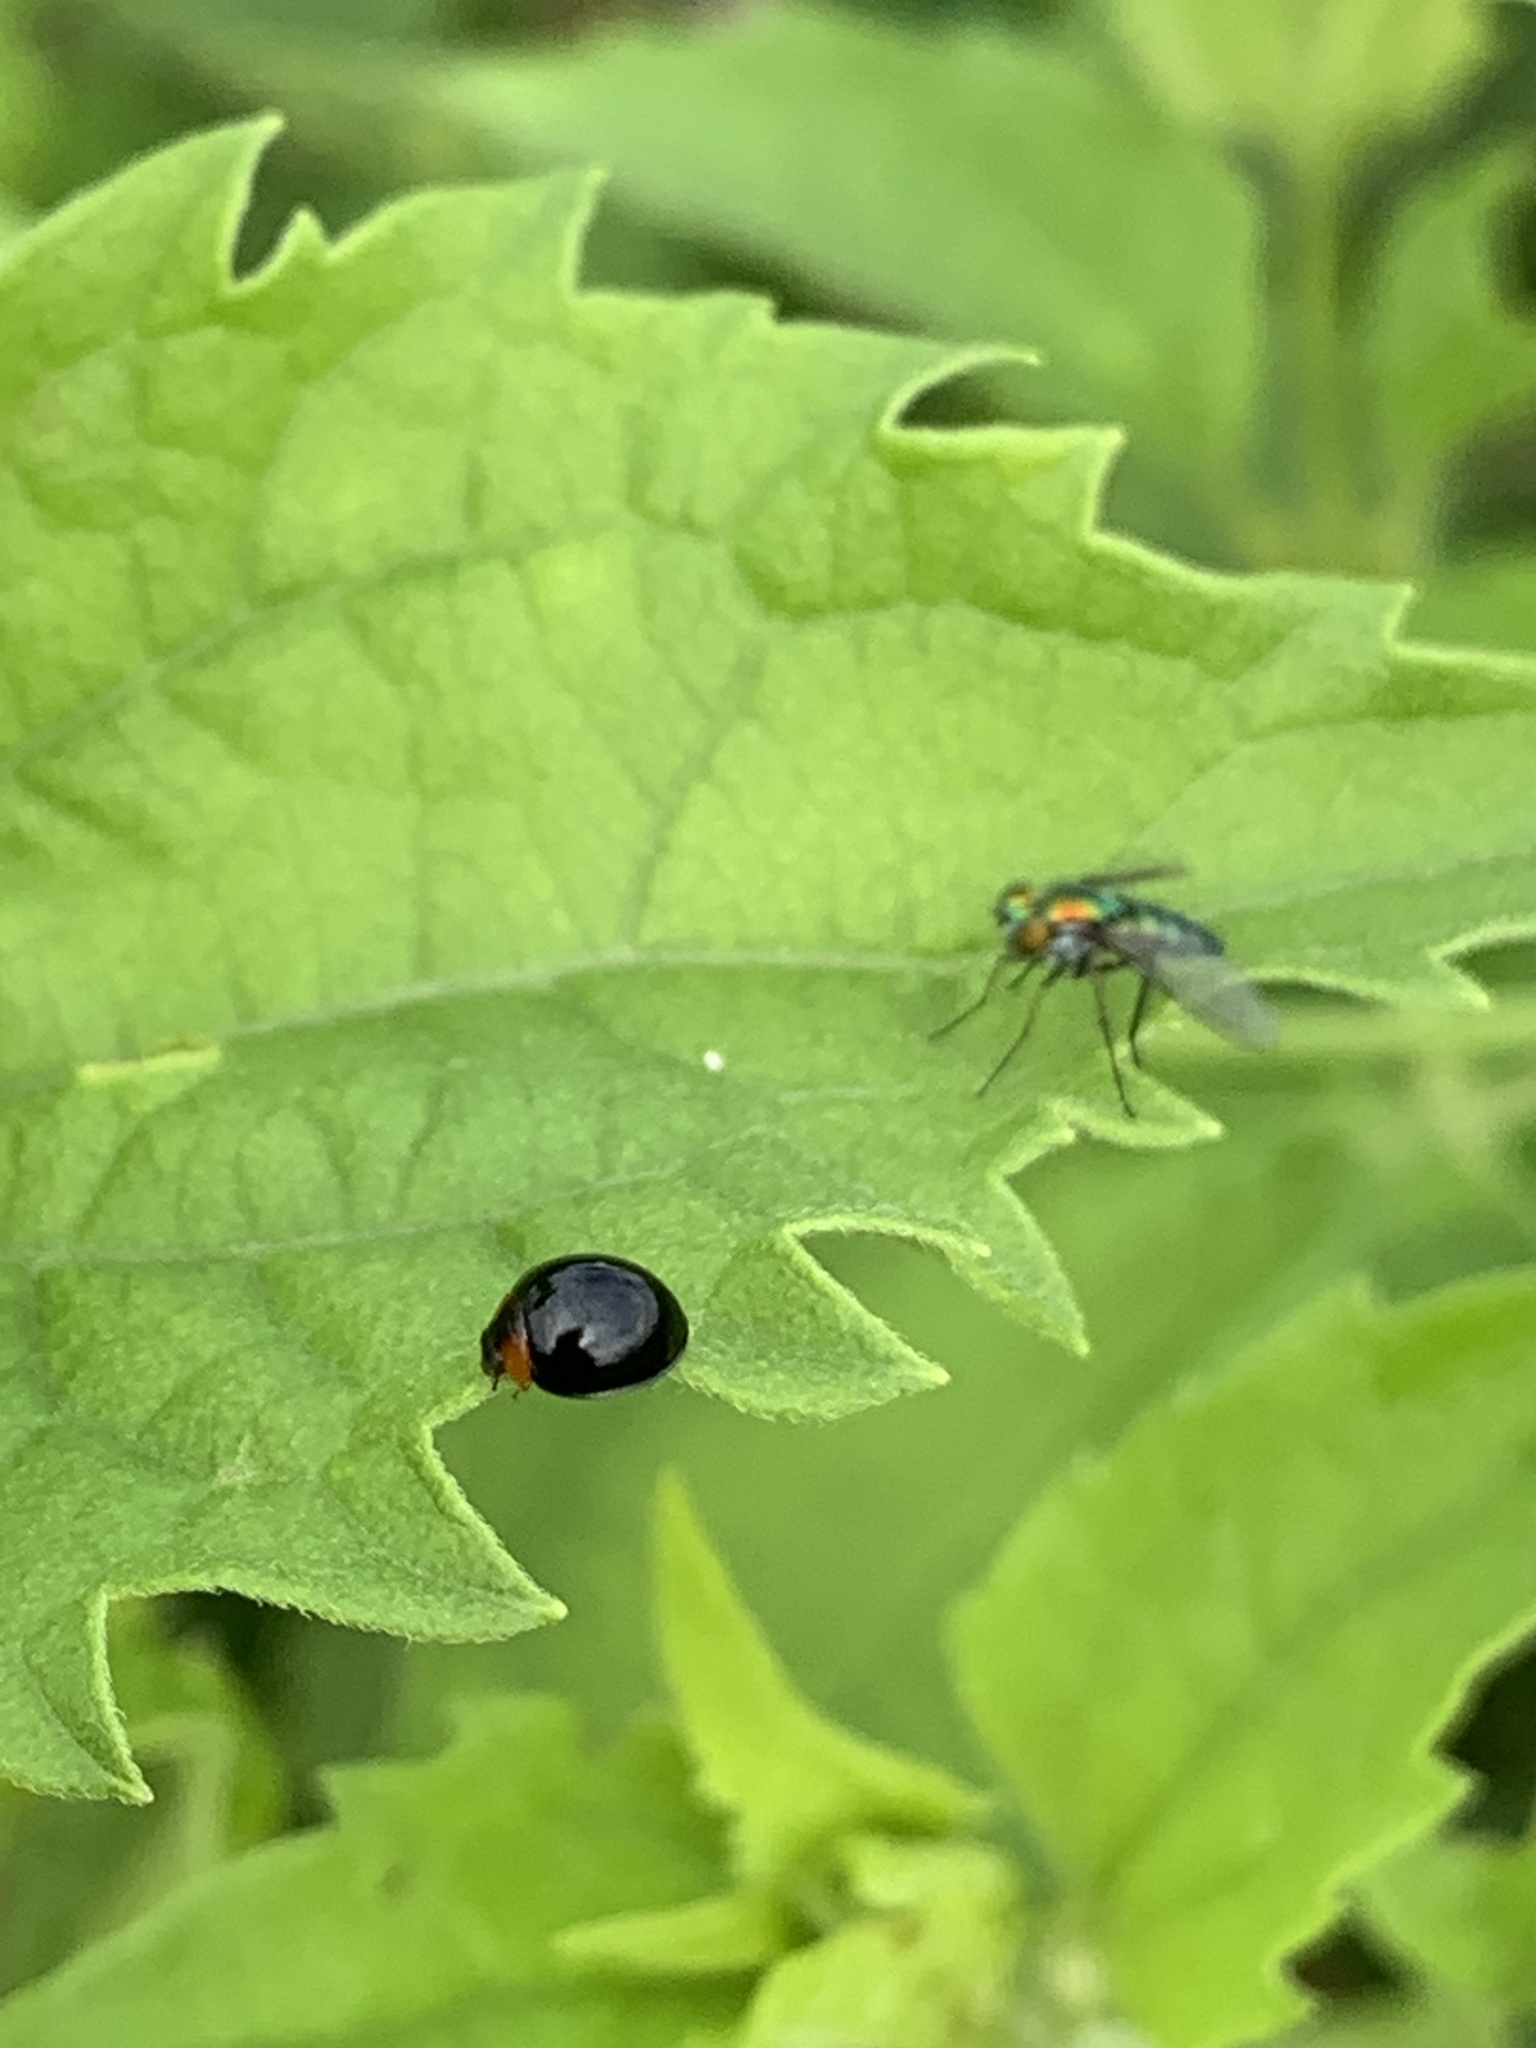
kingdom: Animalia
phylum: Arthropoda
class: Insecta
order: Coleoptera
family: Coccinellidae
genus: Chilocorus
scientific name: Chilocorus nigritus
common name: Ladybird beetle
